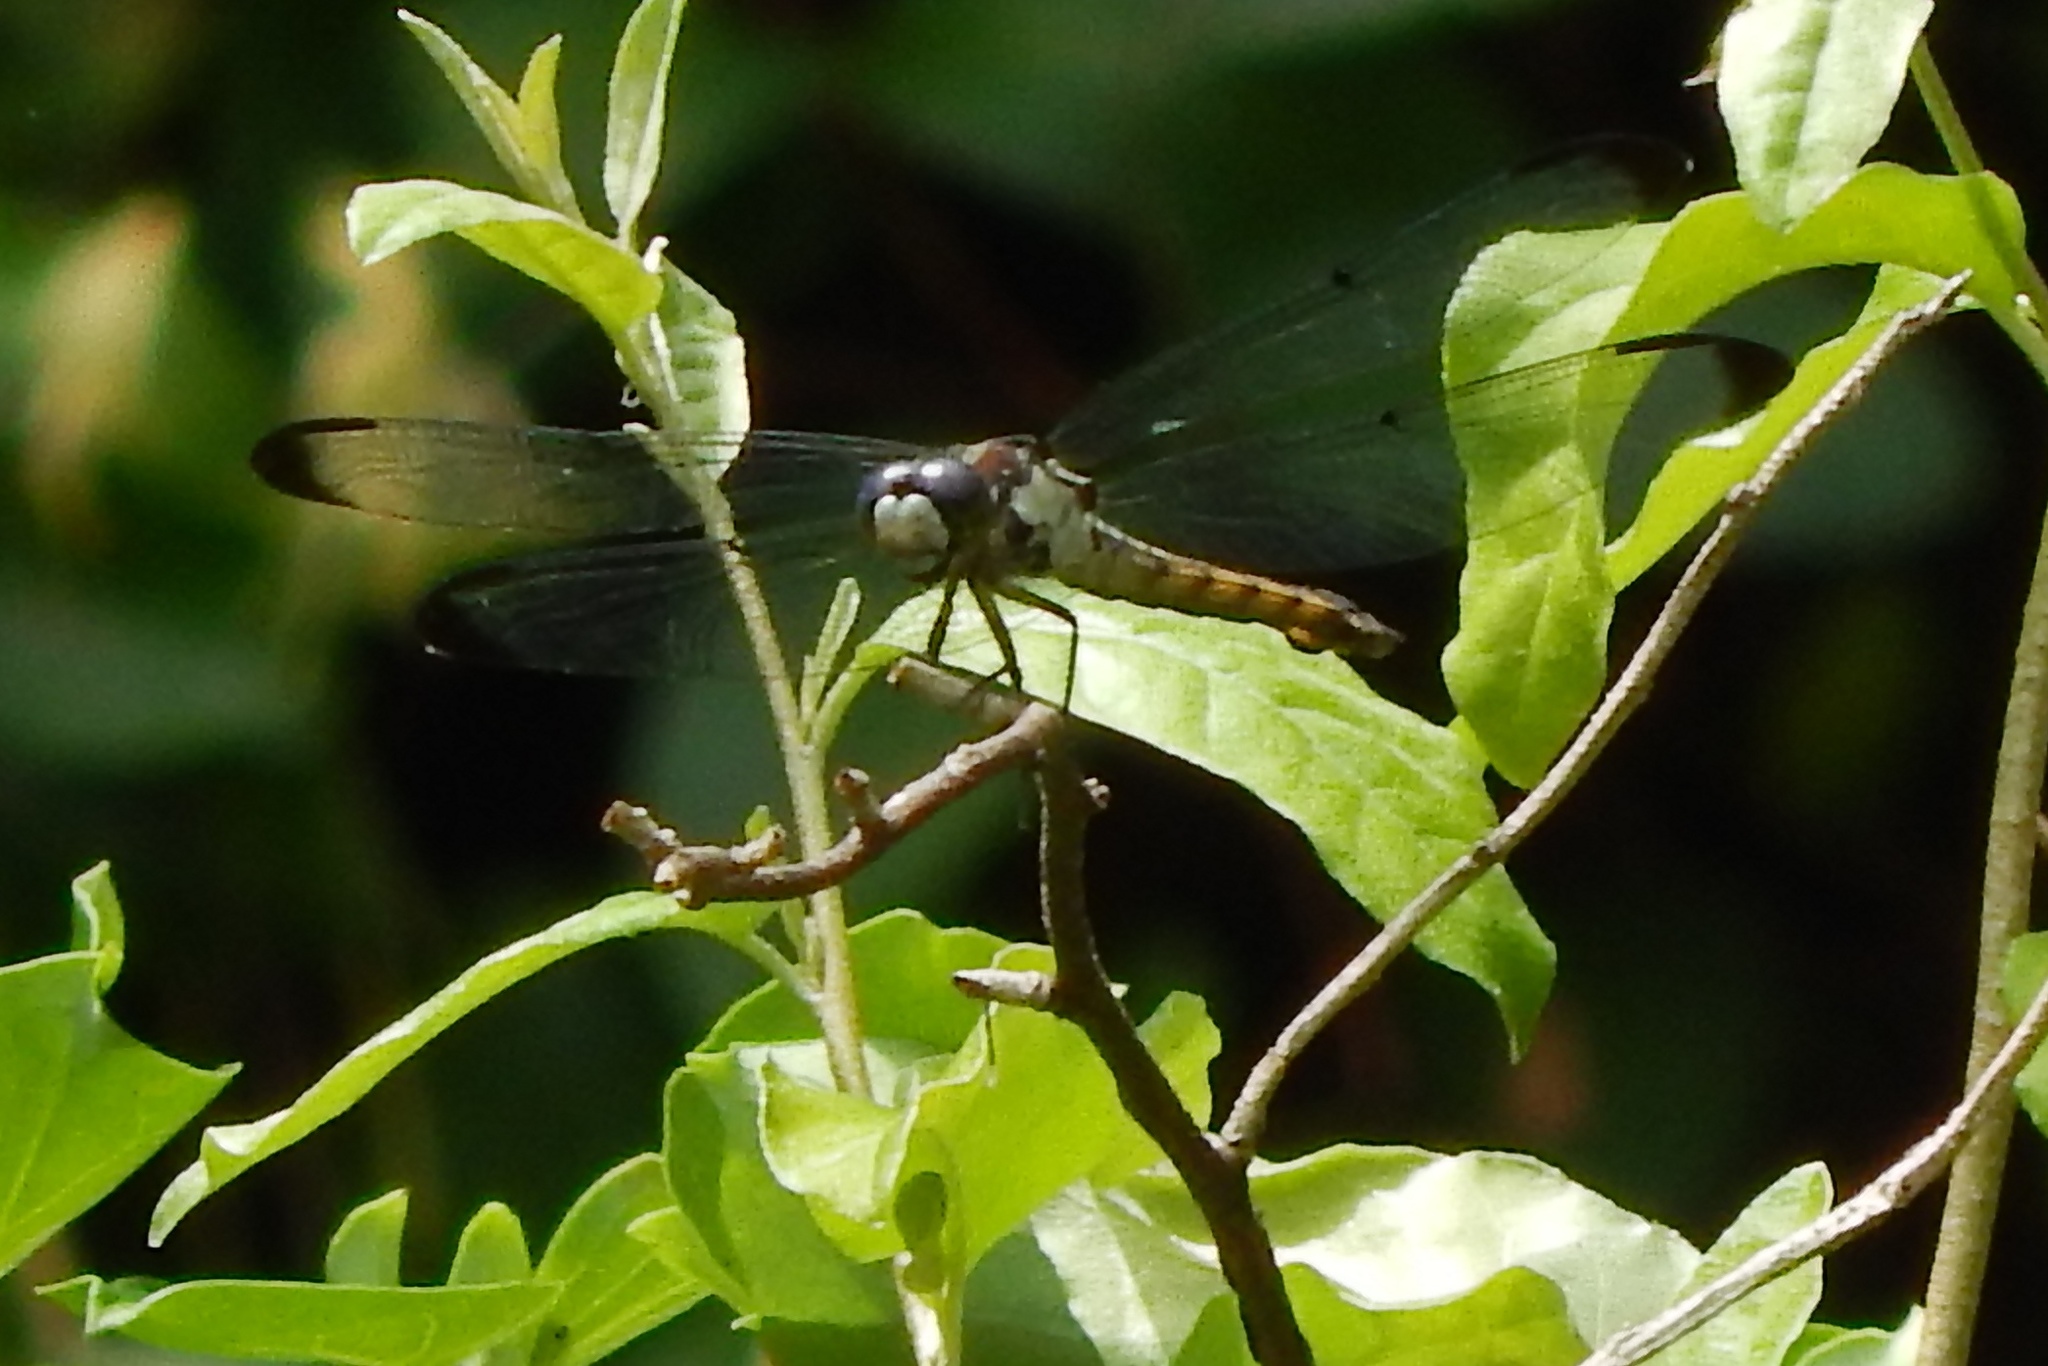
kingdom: Animalia
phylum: Arthropoda
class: Insecta
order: Odonata
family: Libellulidae
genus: Libellula
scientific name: Libellula vibrans
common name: Great blue skimmer
